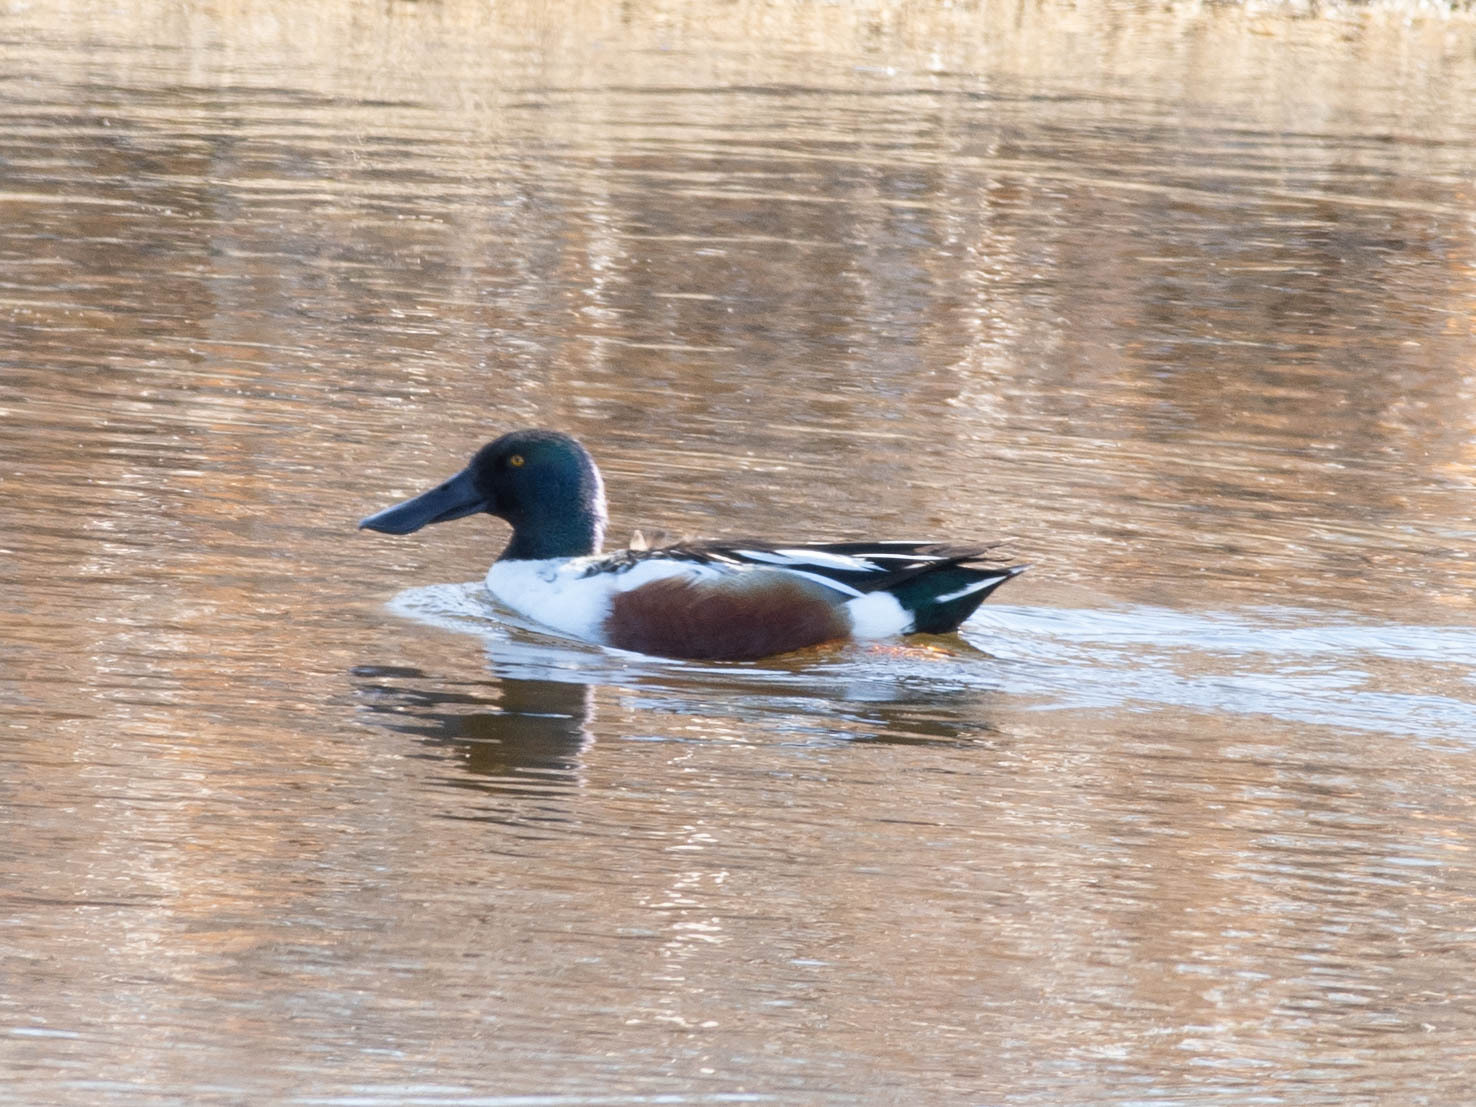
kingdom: Animalia
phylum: Chordata
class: Aves
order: Anseriformes
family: Anatidae
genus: Spatula
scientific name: Spatula clypeata
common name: Northern shoveler
